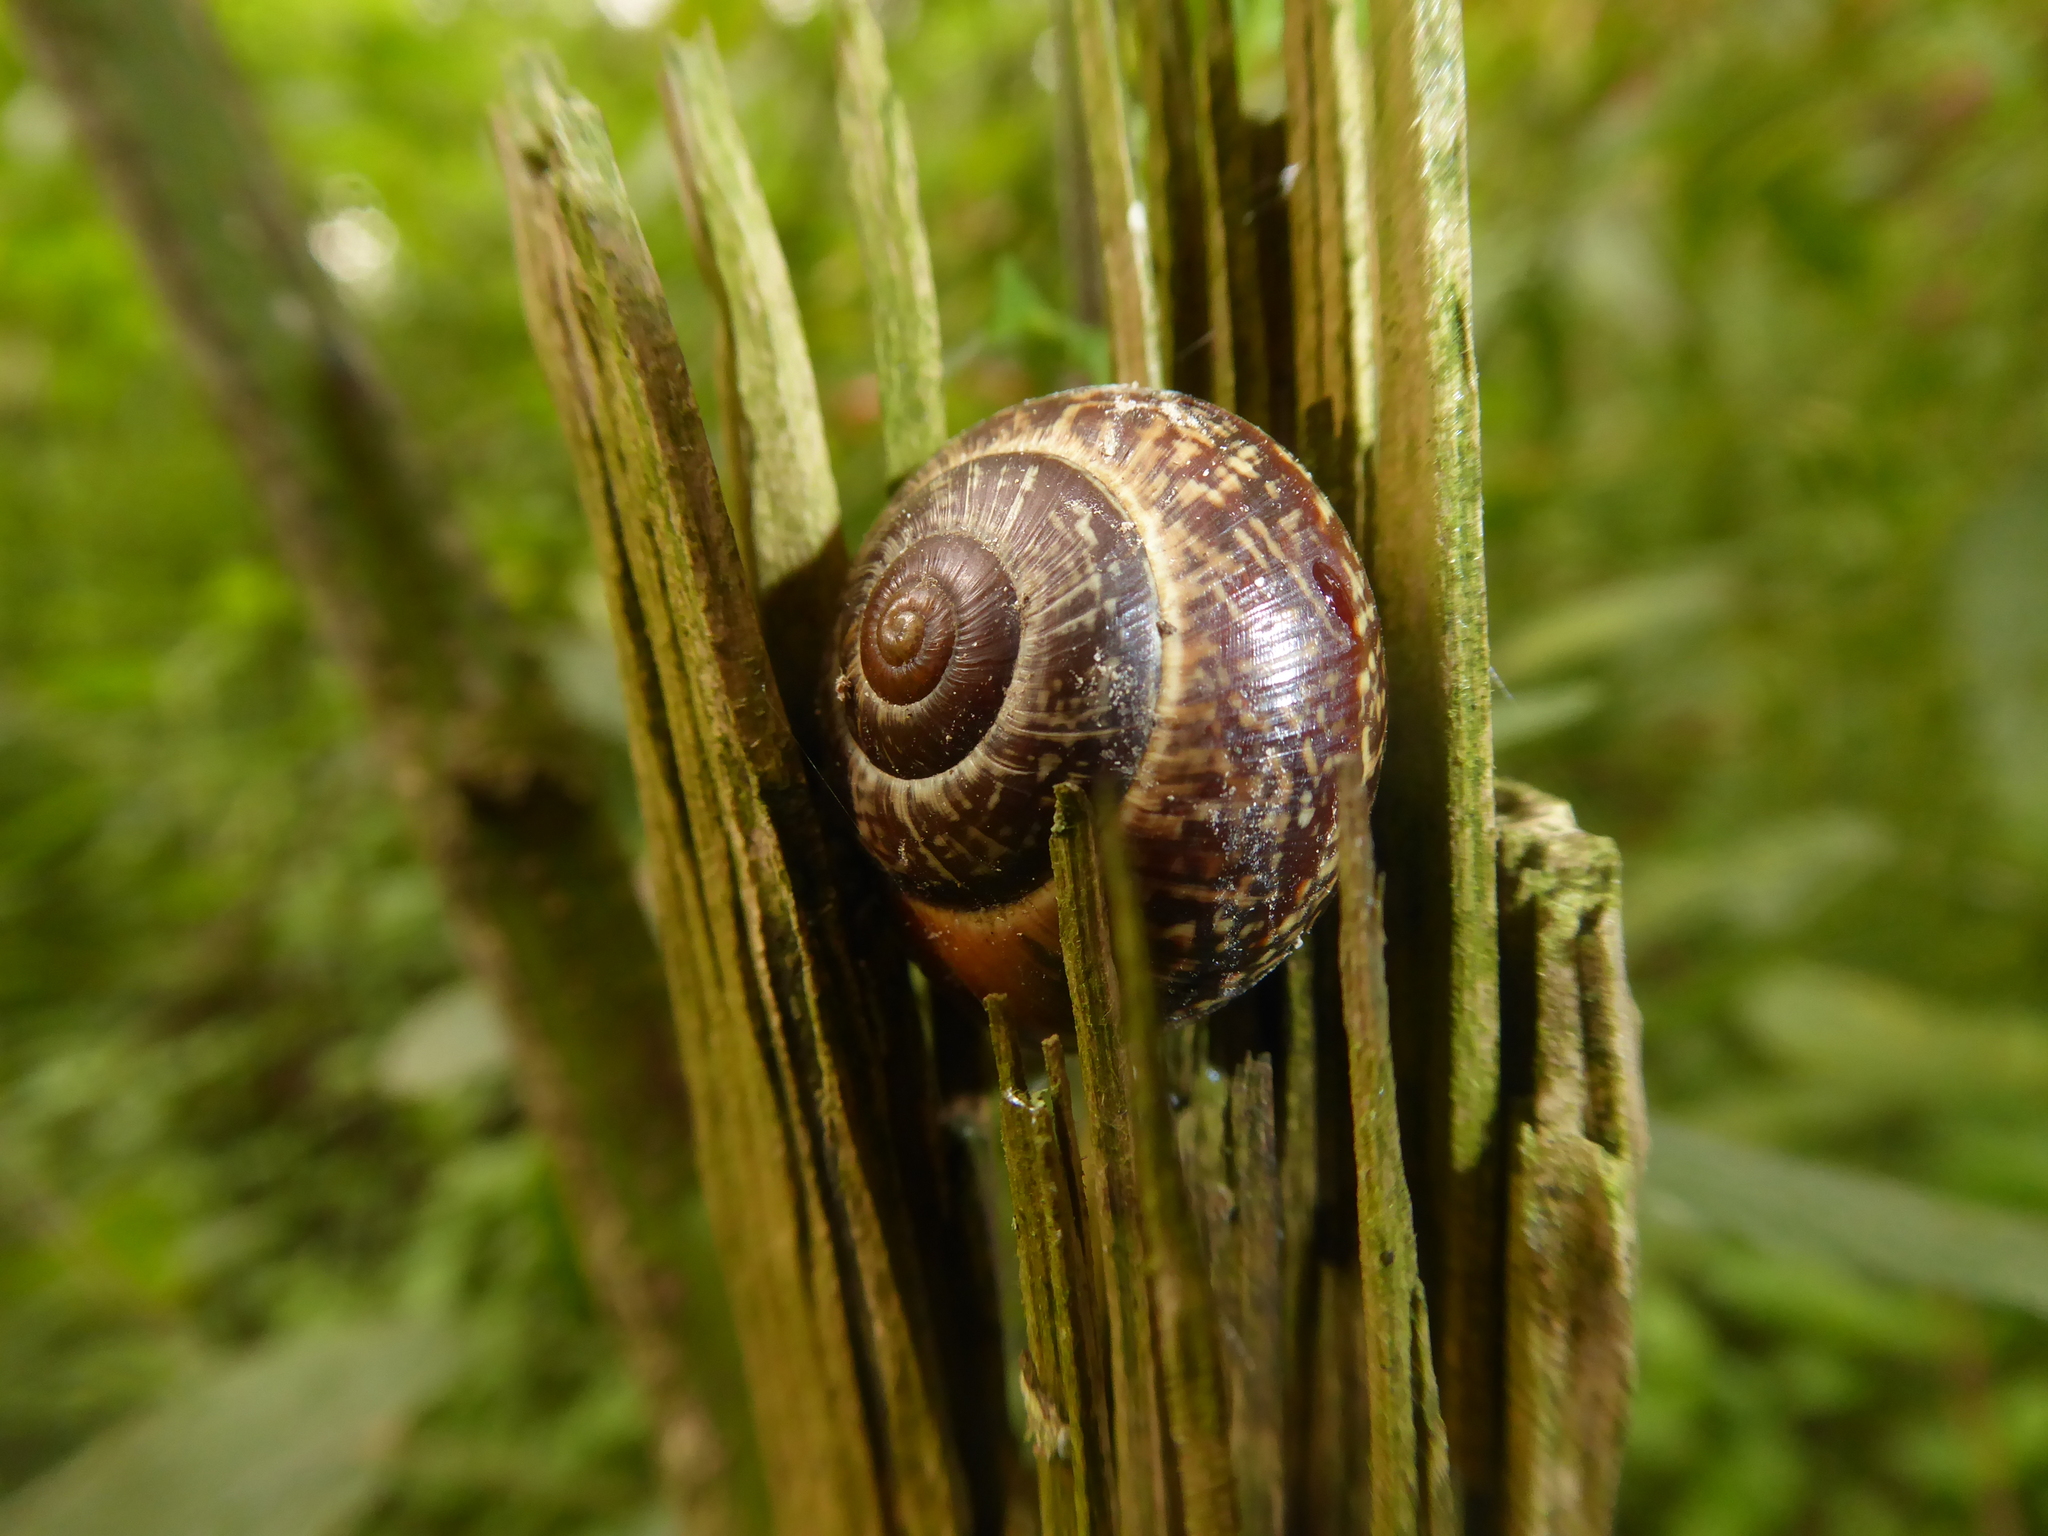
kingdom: Animalia
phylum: Mollusca
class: Gastropoda
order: Stylommatophora
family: Helicidae
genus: Arianta
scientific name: Arianta arbustorum
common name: Copse snail
